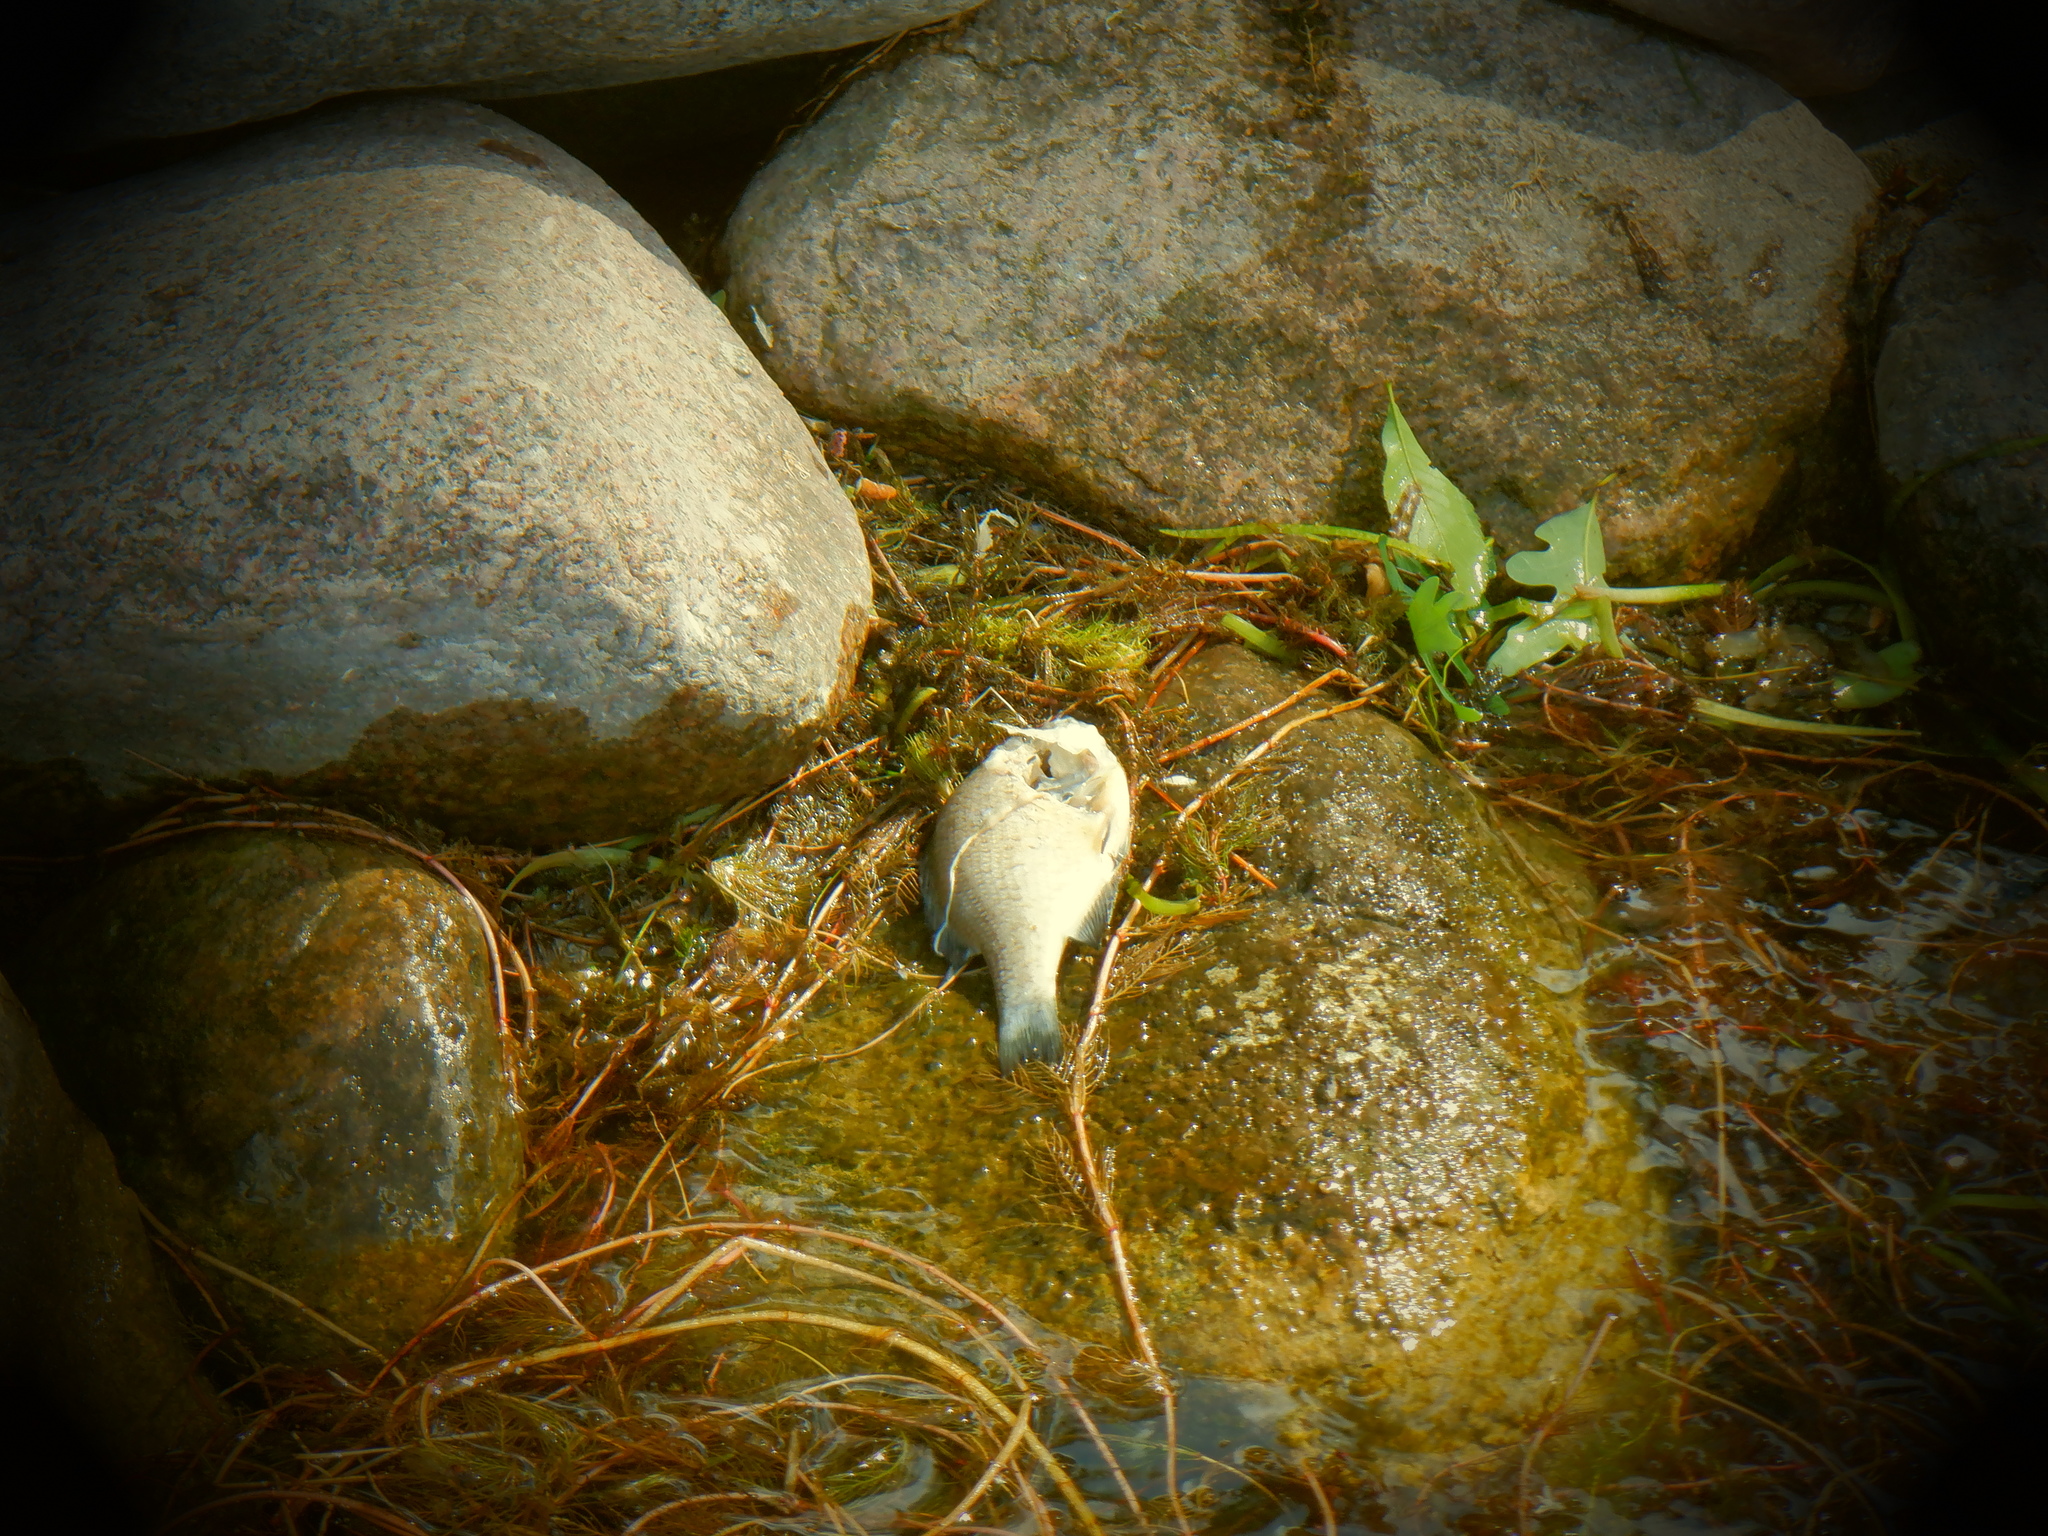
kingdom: Animalia
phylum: Chordata
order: Perciformes
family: Centrarchidae
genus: Lepomis
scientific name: Lepomis macrochirus
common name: Bluegill
